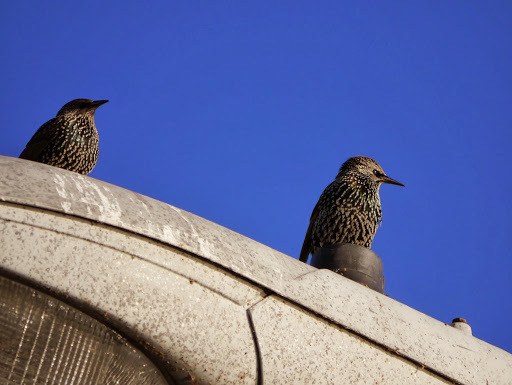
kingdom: Animalia
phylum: Chordata
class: Aves
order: Passeriformes
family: Sturnidae
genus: Sturnus
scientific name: Sturnus vulgaris
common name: Common starling
